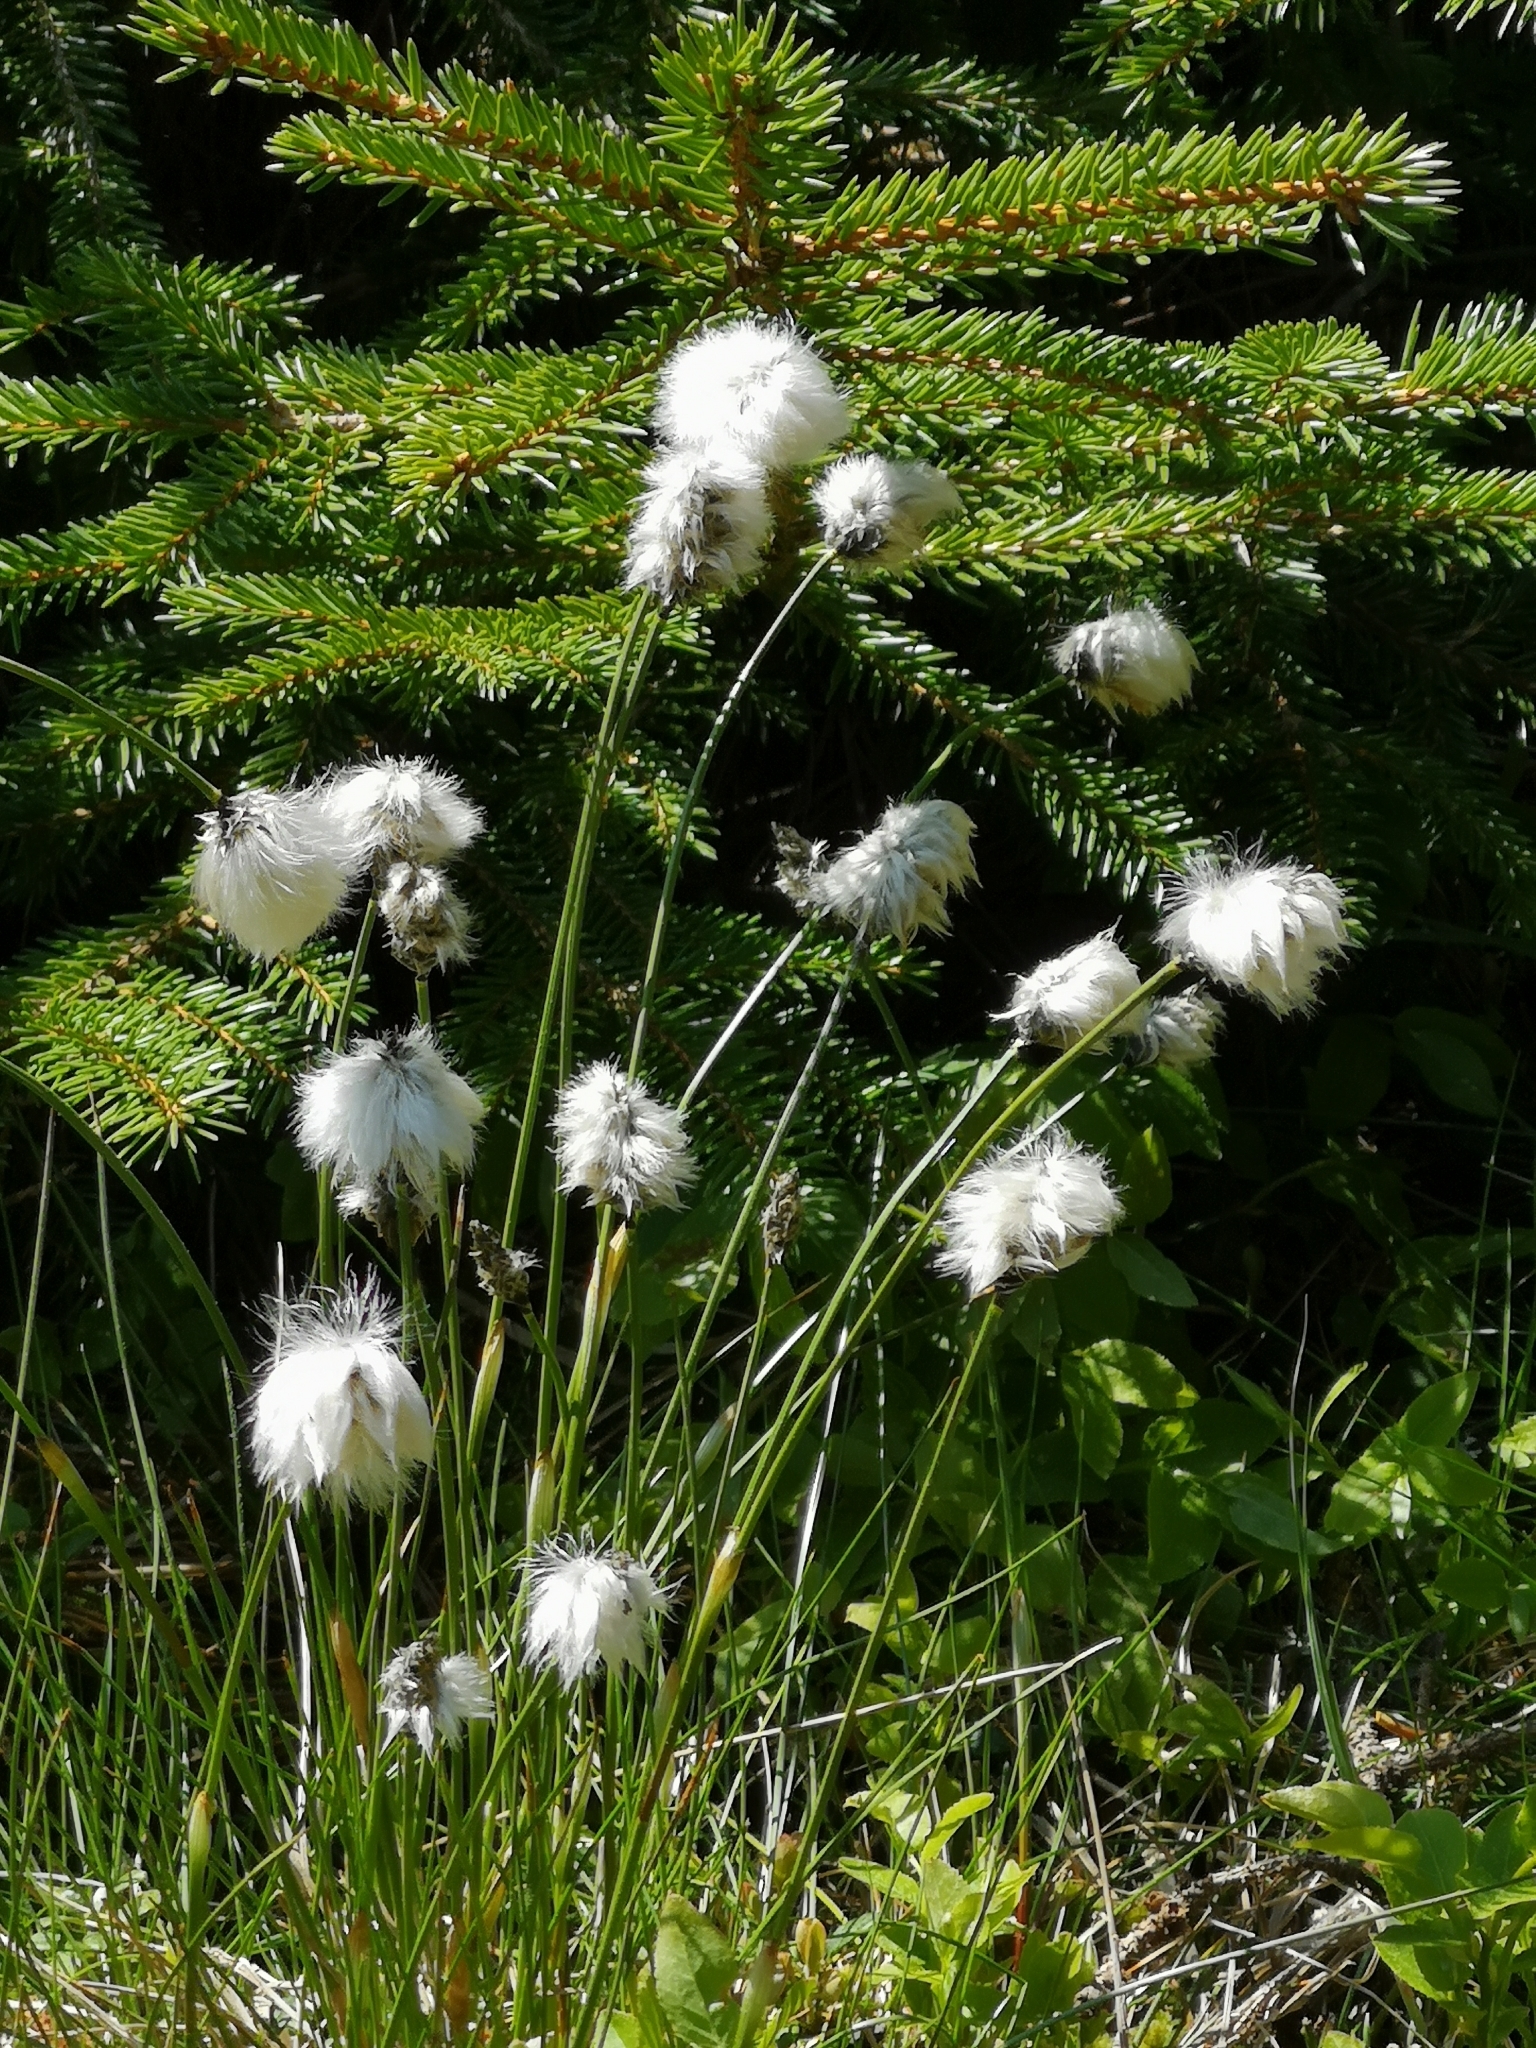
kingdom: Plantae
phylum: Tracheophyta
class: Liliopsida
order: Poales
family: Cyperaceae
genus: Eriophorum
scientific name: Eriophorum vaginatum
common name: Hare's-tail cottongrass
